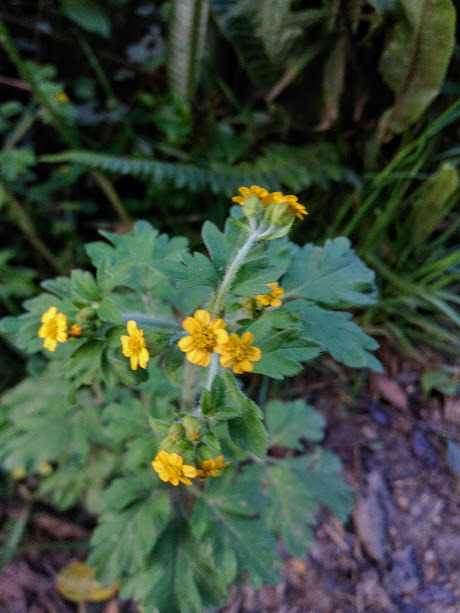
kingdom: Plantae
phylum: Tracheophyta
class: Magnoliopsida
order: Asterales
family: Asteraceae
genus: Villanova
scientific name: Villanova oppositifolia
